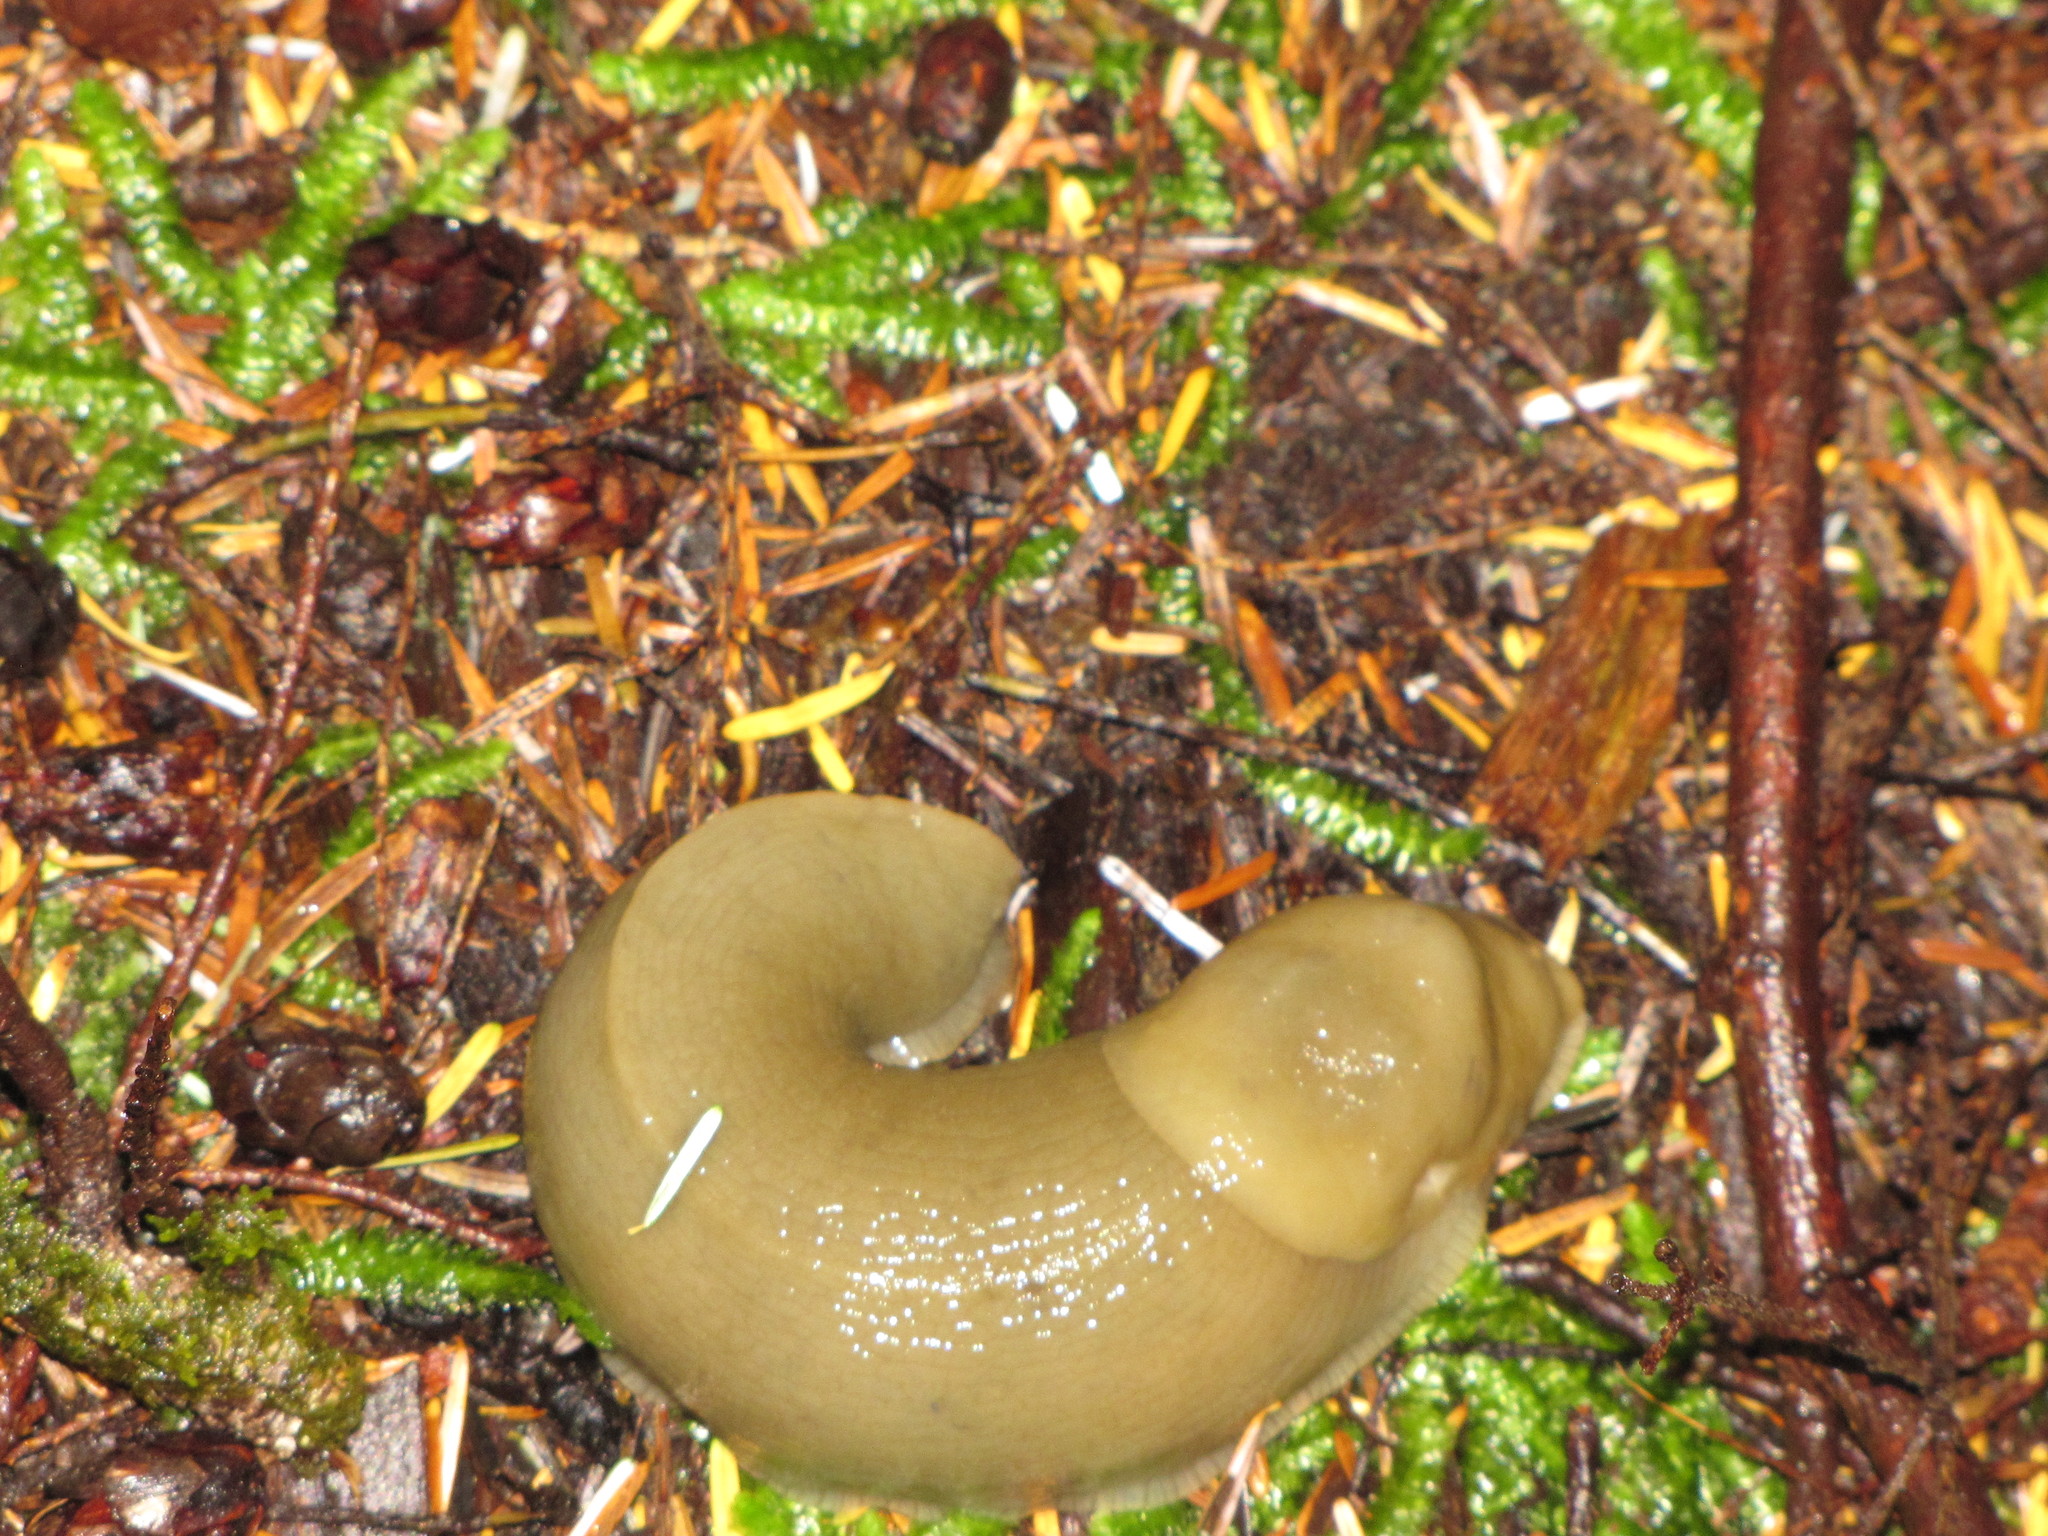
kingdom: Animalia
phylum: Mollusca
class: Gastropoda
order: Stylommatophora
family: Ariolimacidae
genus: Ariolimax
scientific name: Ariolimax columbianus
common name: Pacific banana slug
